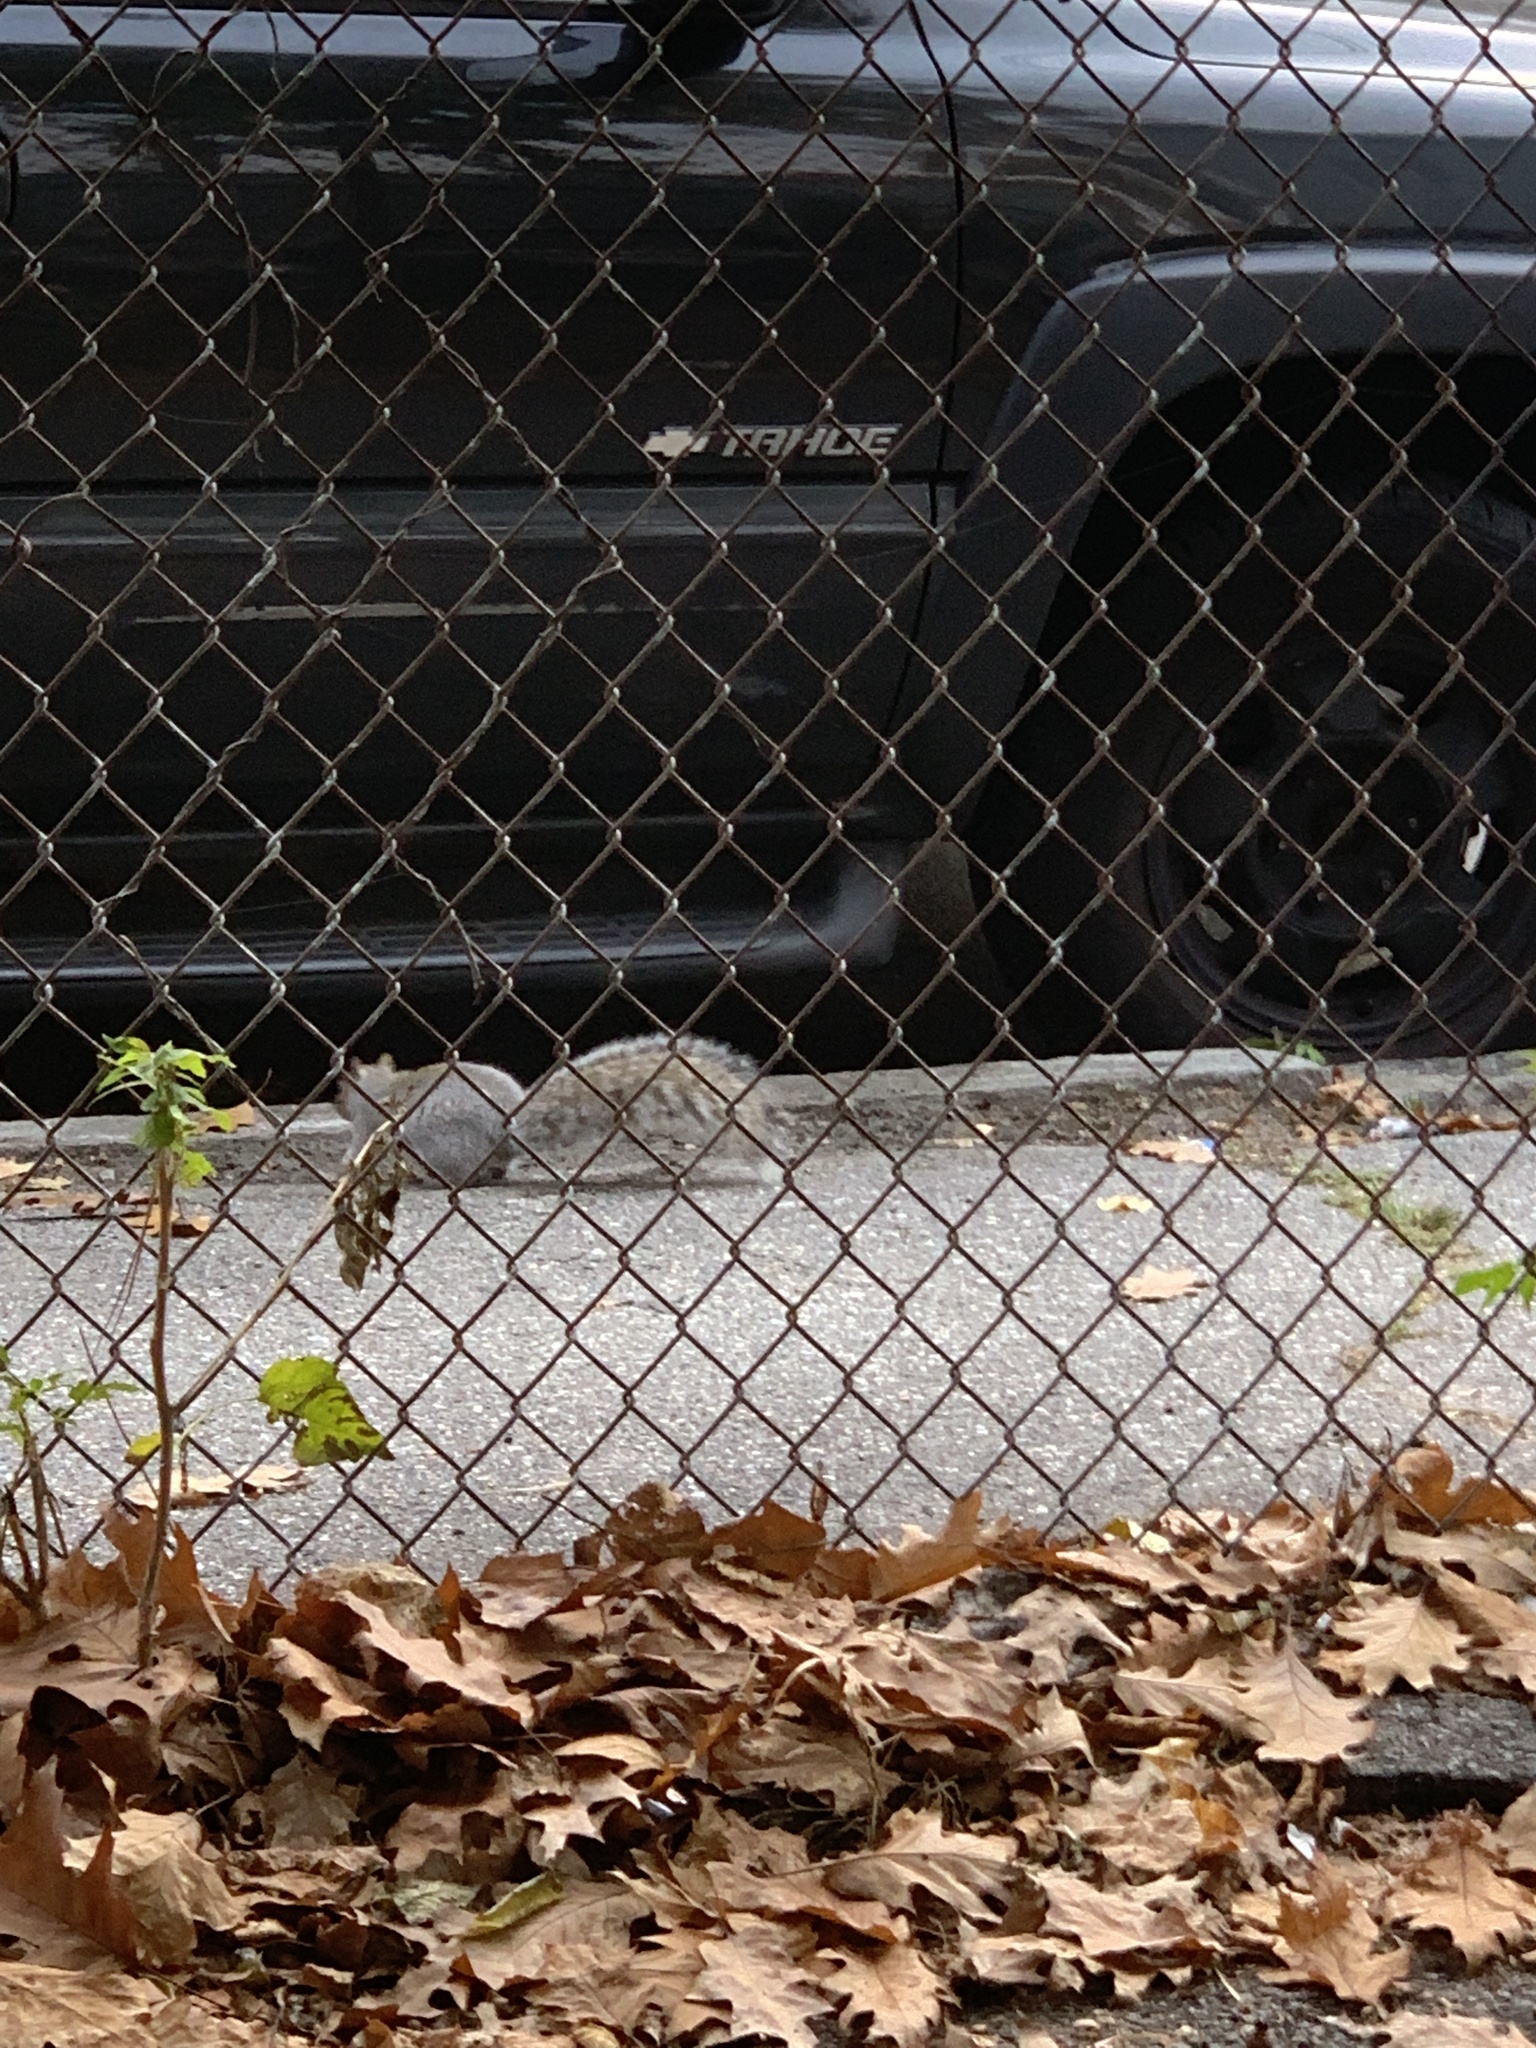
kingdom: Animalia
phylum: Chordata
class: Mammalia
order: Rodentia
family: Sciuridae
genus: Sciurus
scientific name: Sciurus carolinensis
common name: Eastern gray squirrel
